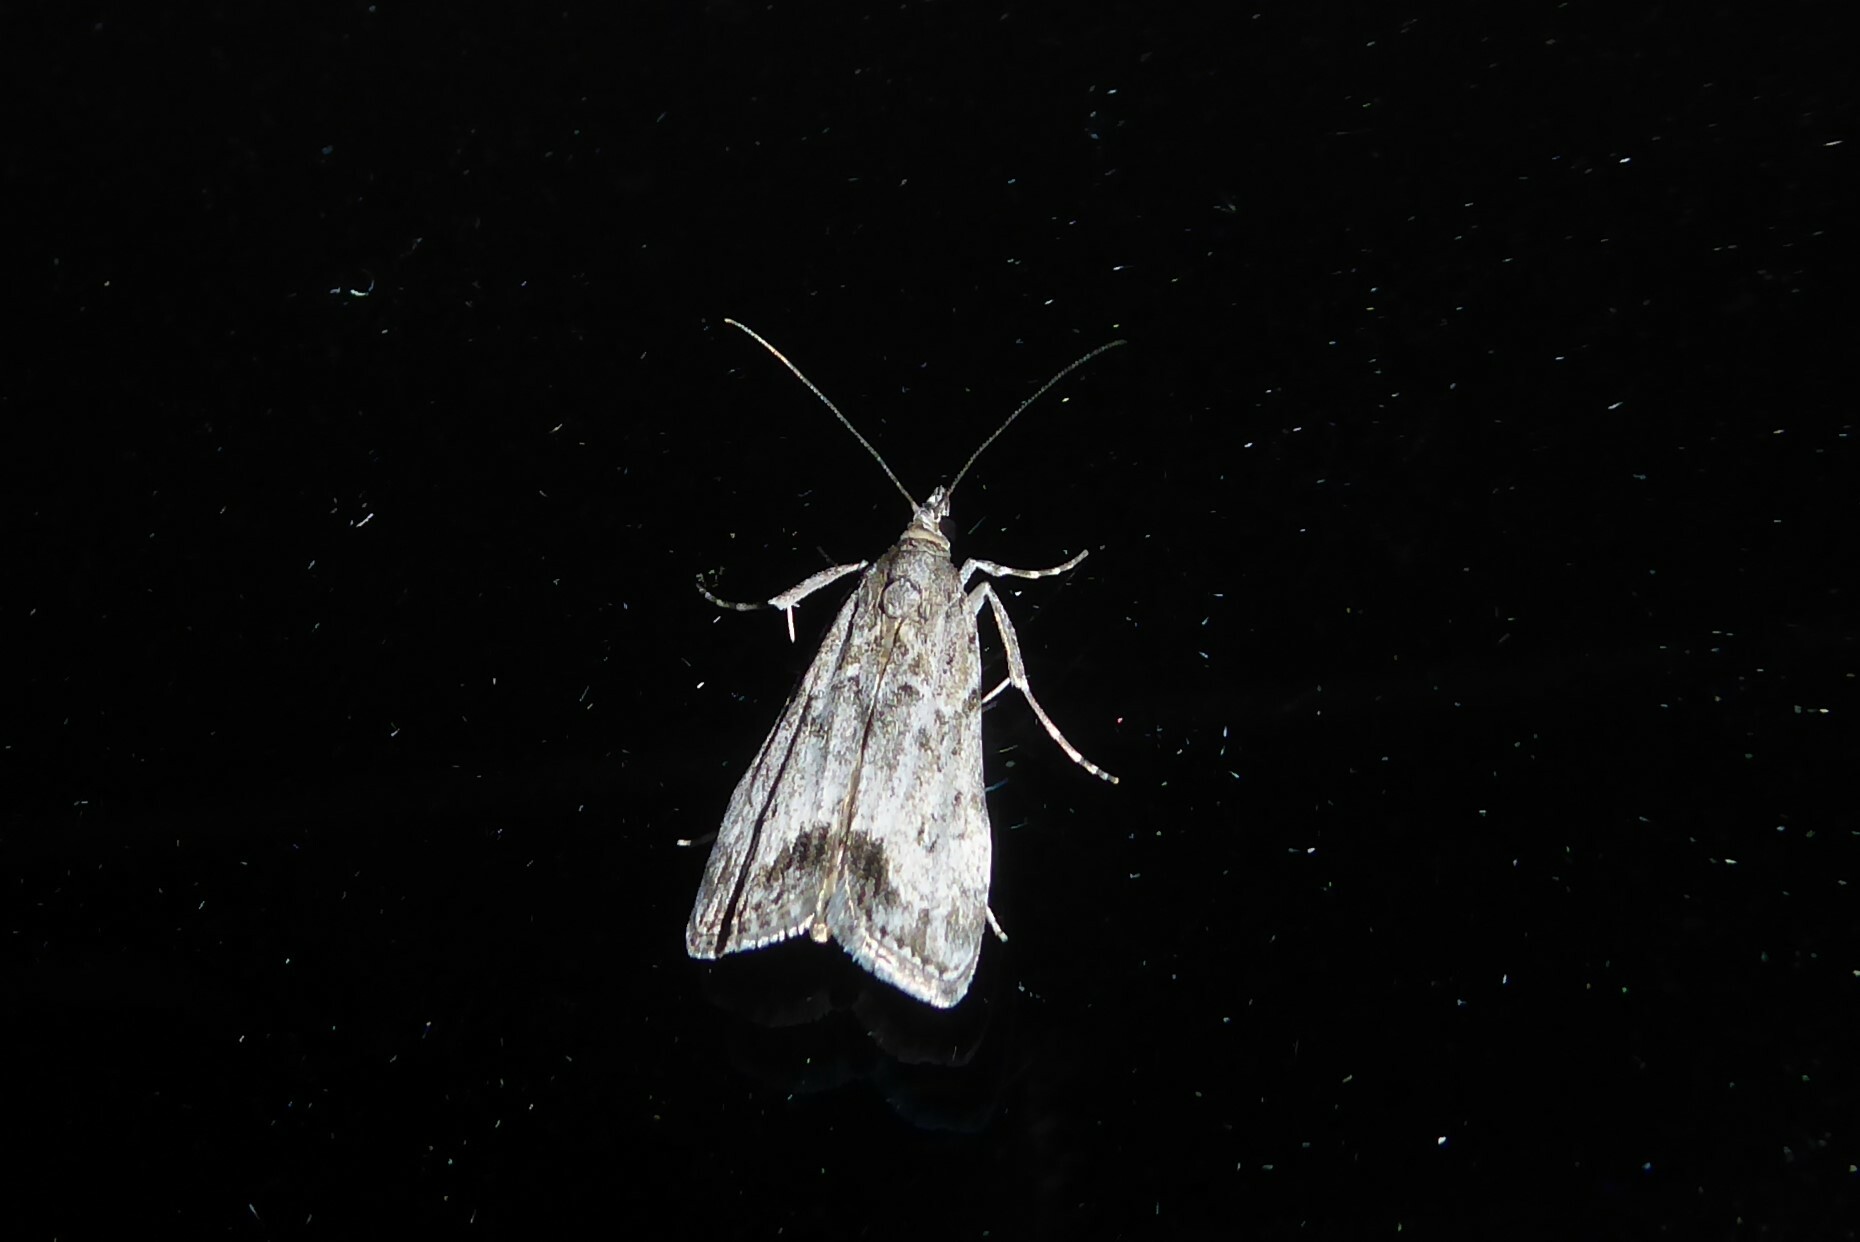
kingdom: Animalia
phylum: Arthropoda
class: Insecta
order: Lepidoptera
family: Crambidae
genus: Eudonia
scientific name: Eudonia rakaiensis
